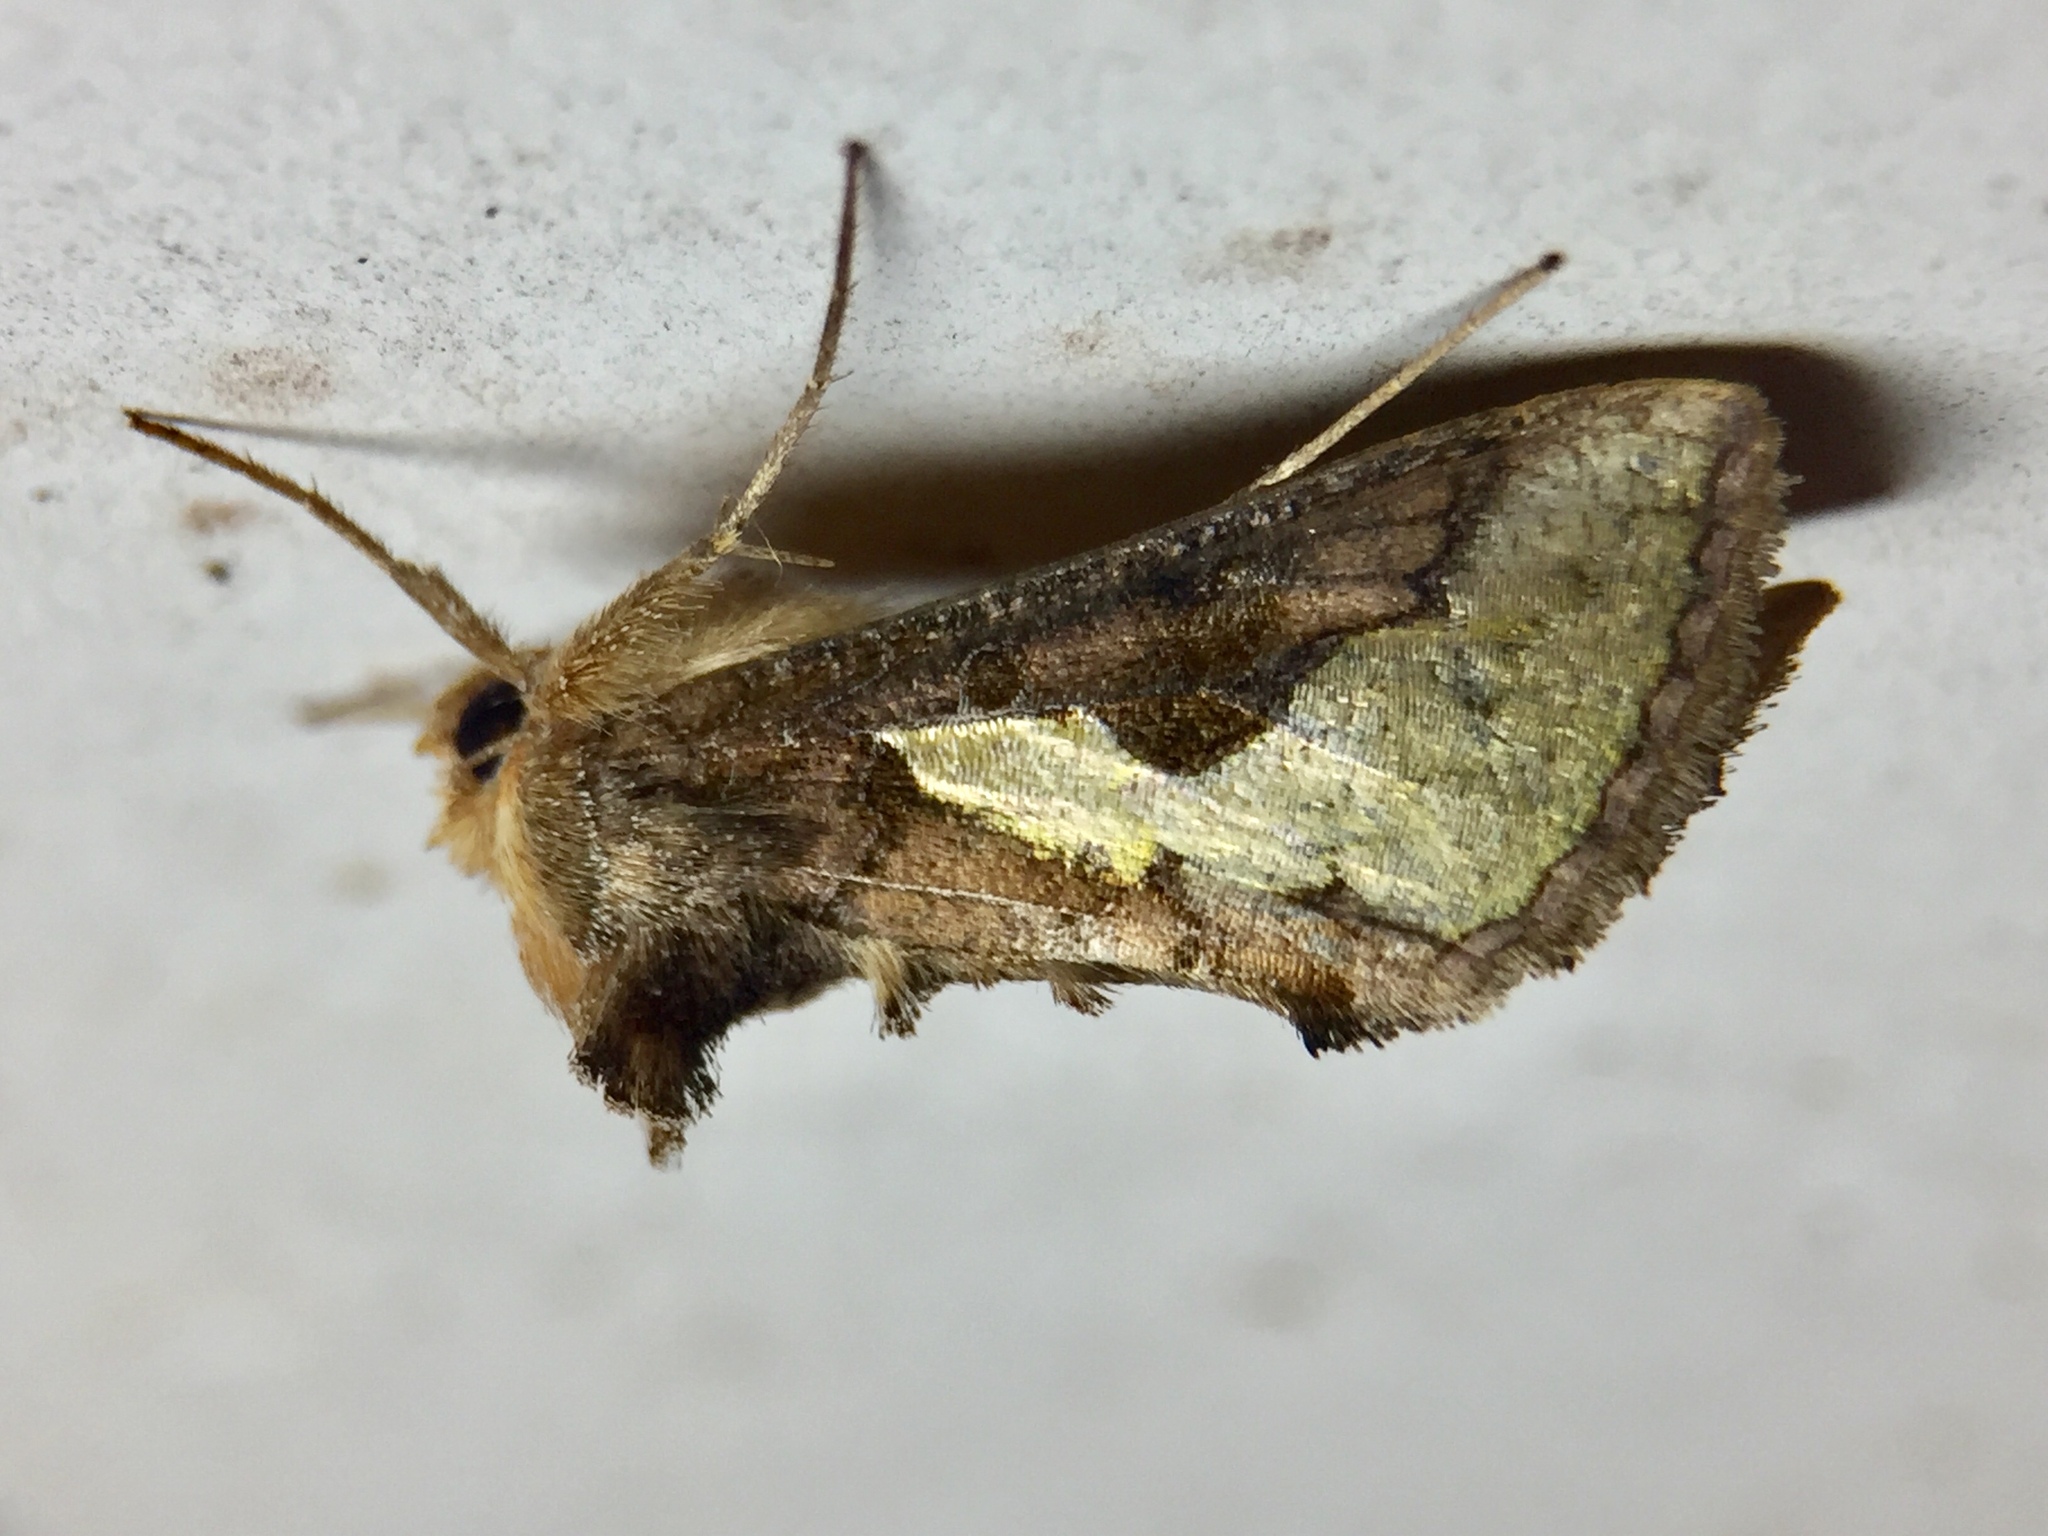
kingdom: Animalia
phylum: Arthropoda
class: Insecta
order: Lepidoptera
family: Noctuidae
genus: Thysanoplusia
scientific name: Thysanoplusia orichalcea
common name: Slender burnished brass, golden plusia
